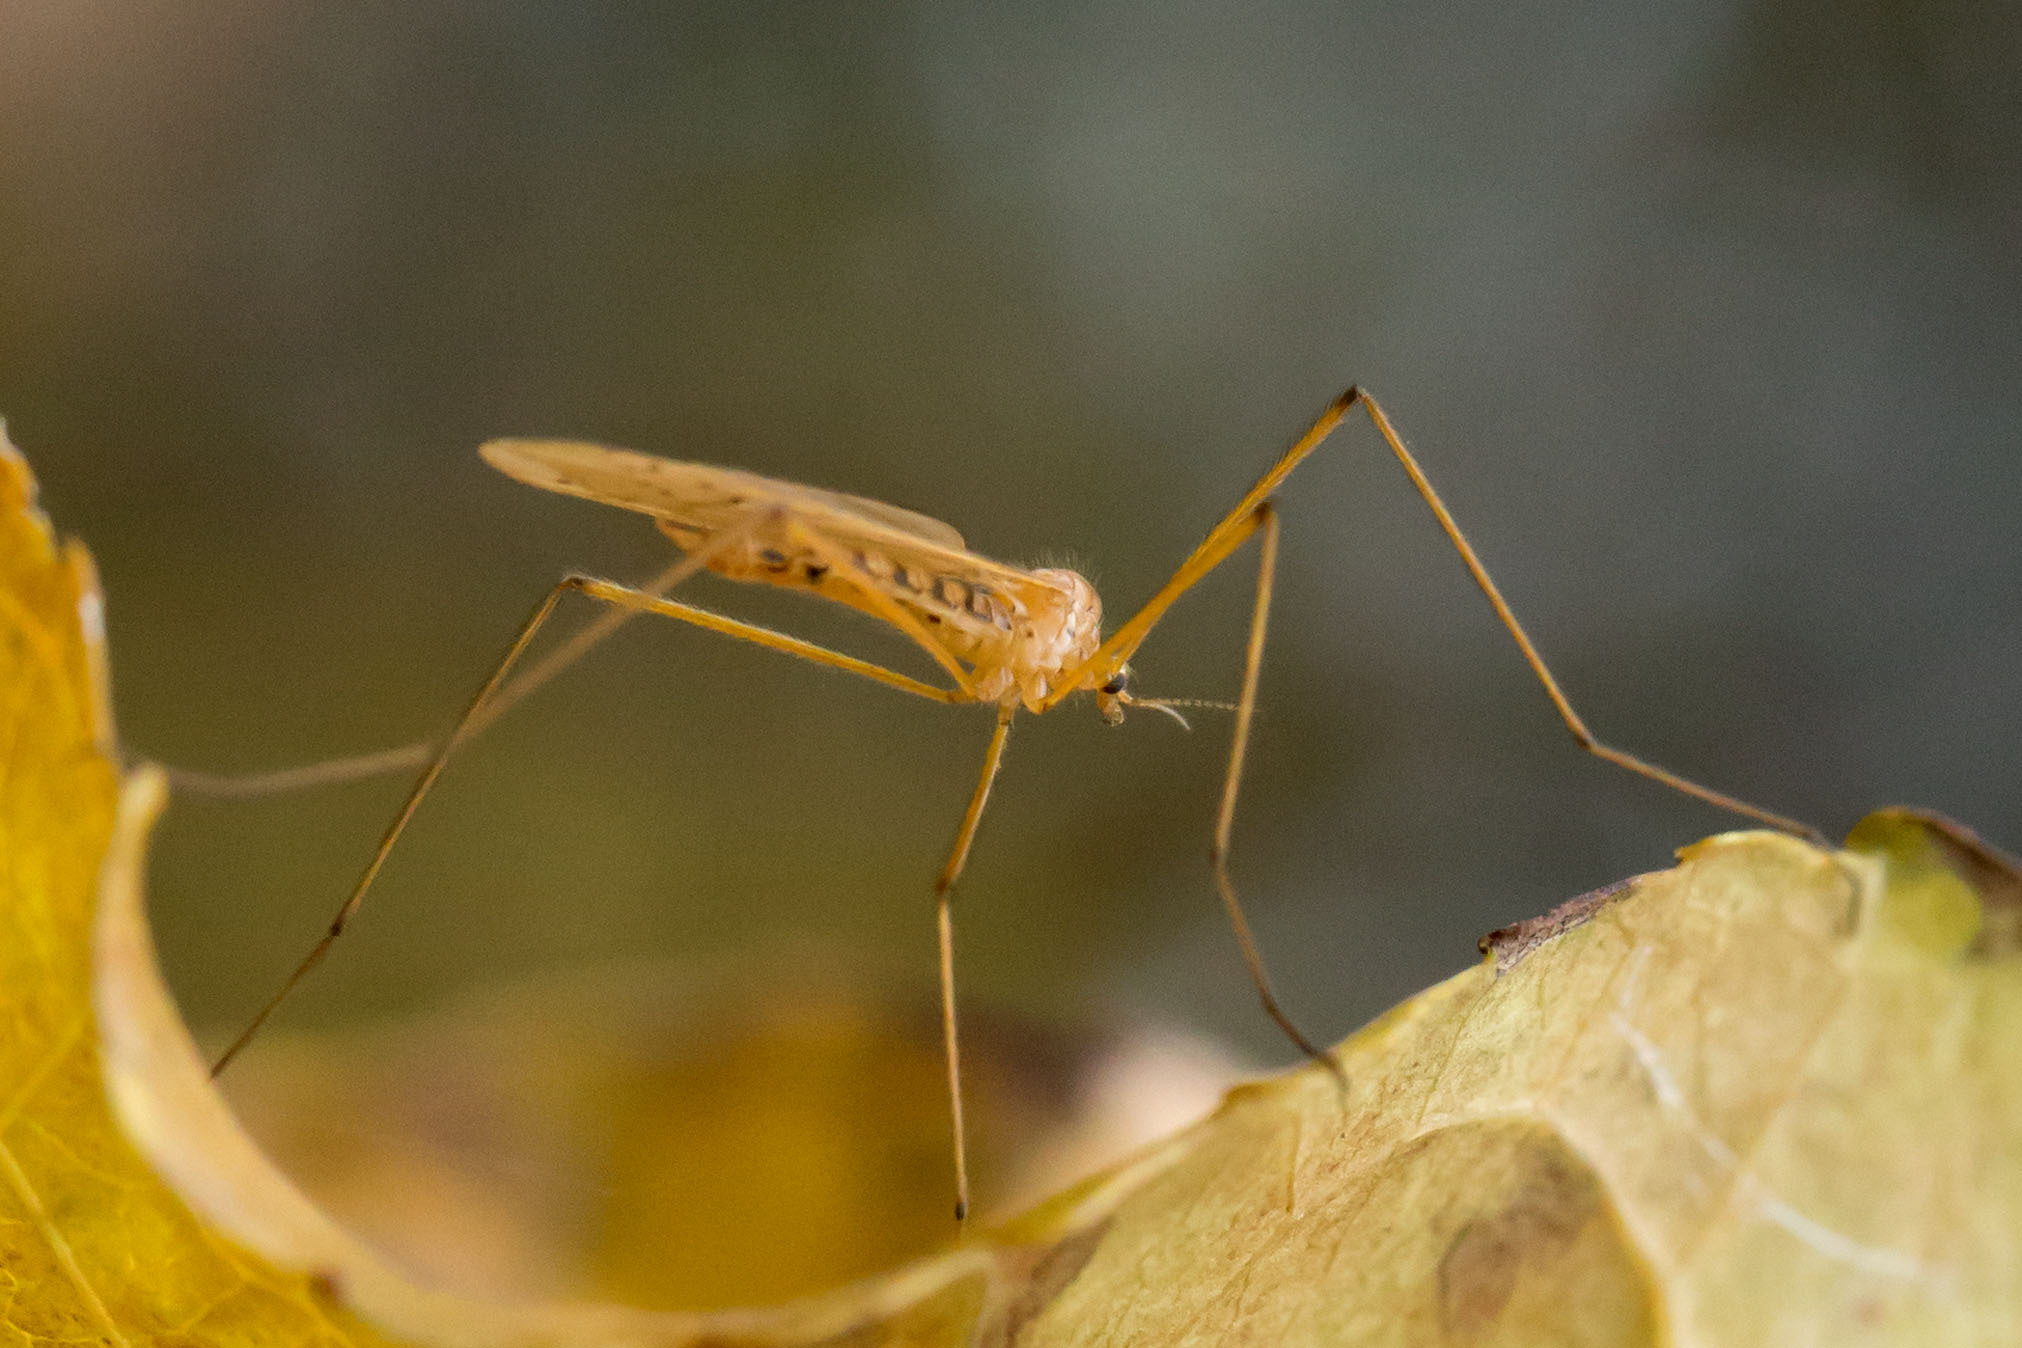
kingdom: Animalia
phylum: Arthropoda
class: Insecta
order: Diptera
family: Limoniidae
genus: Cladura
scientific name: Cladura flavoferruginea
